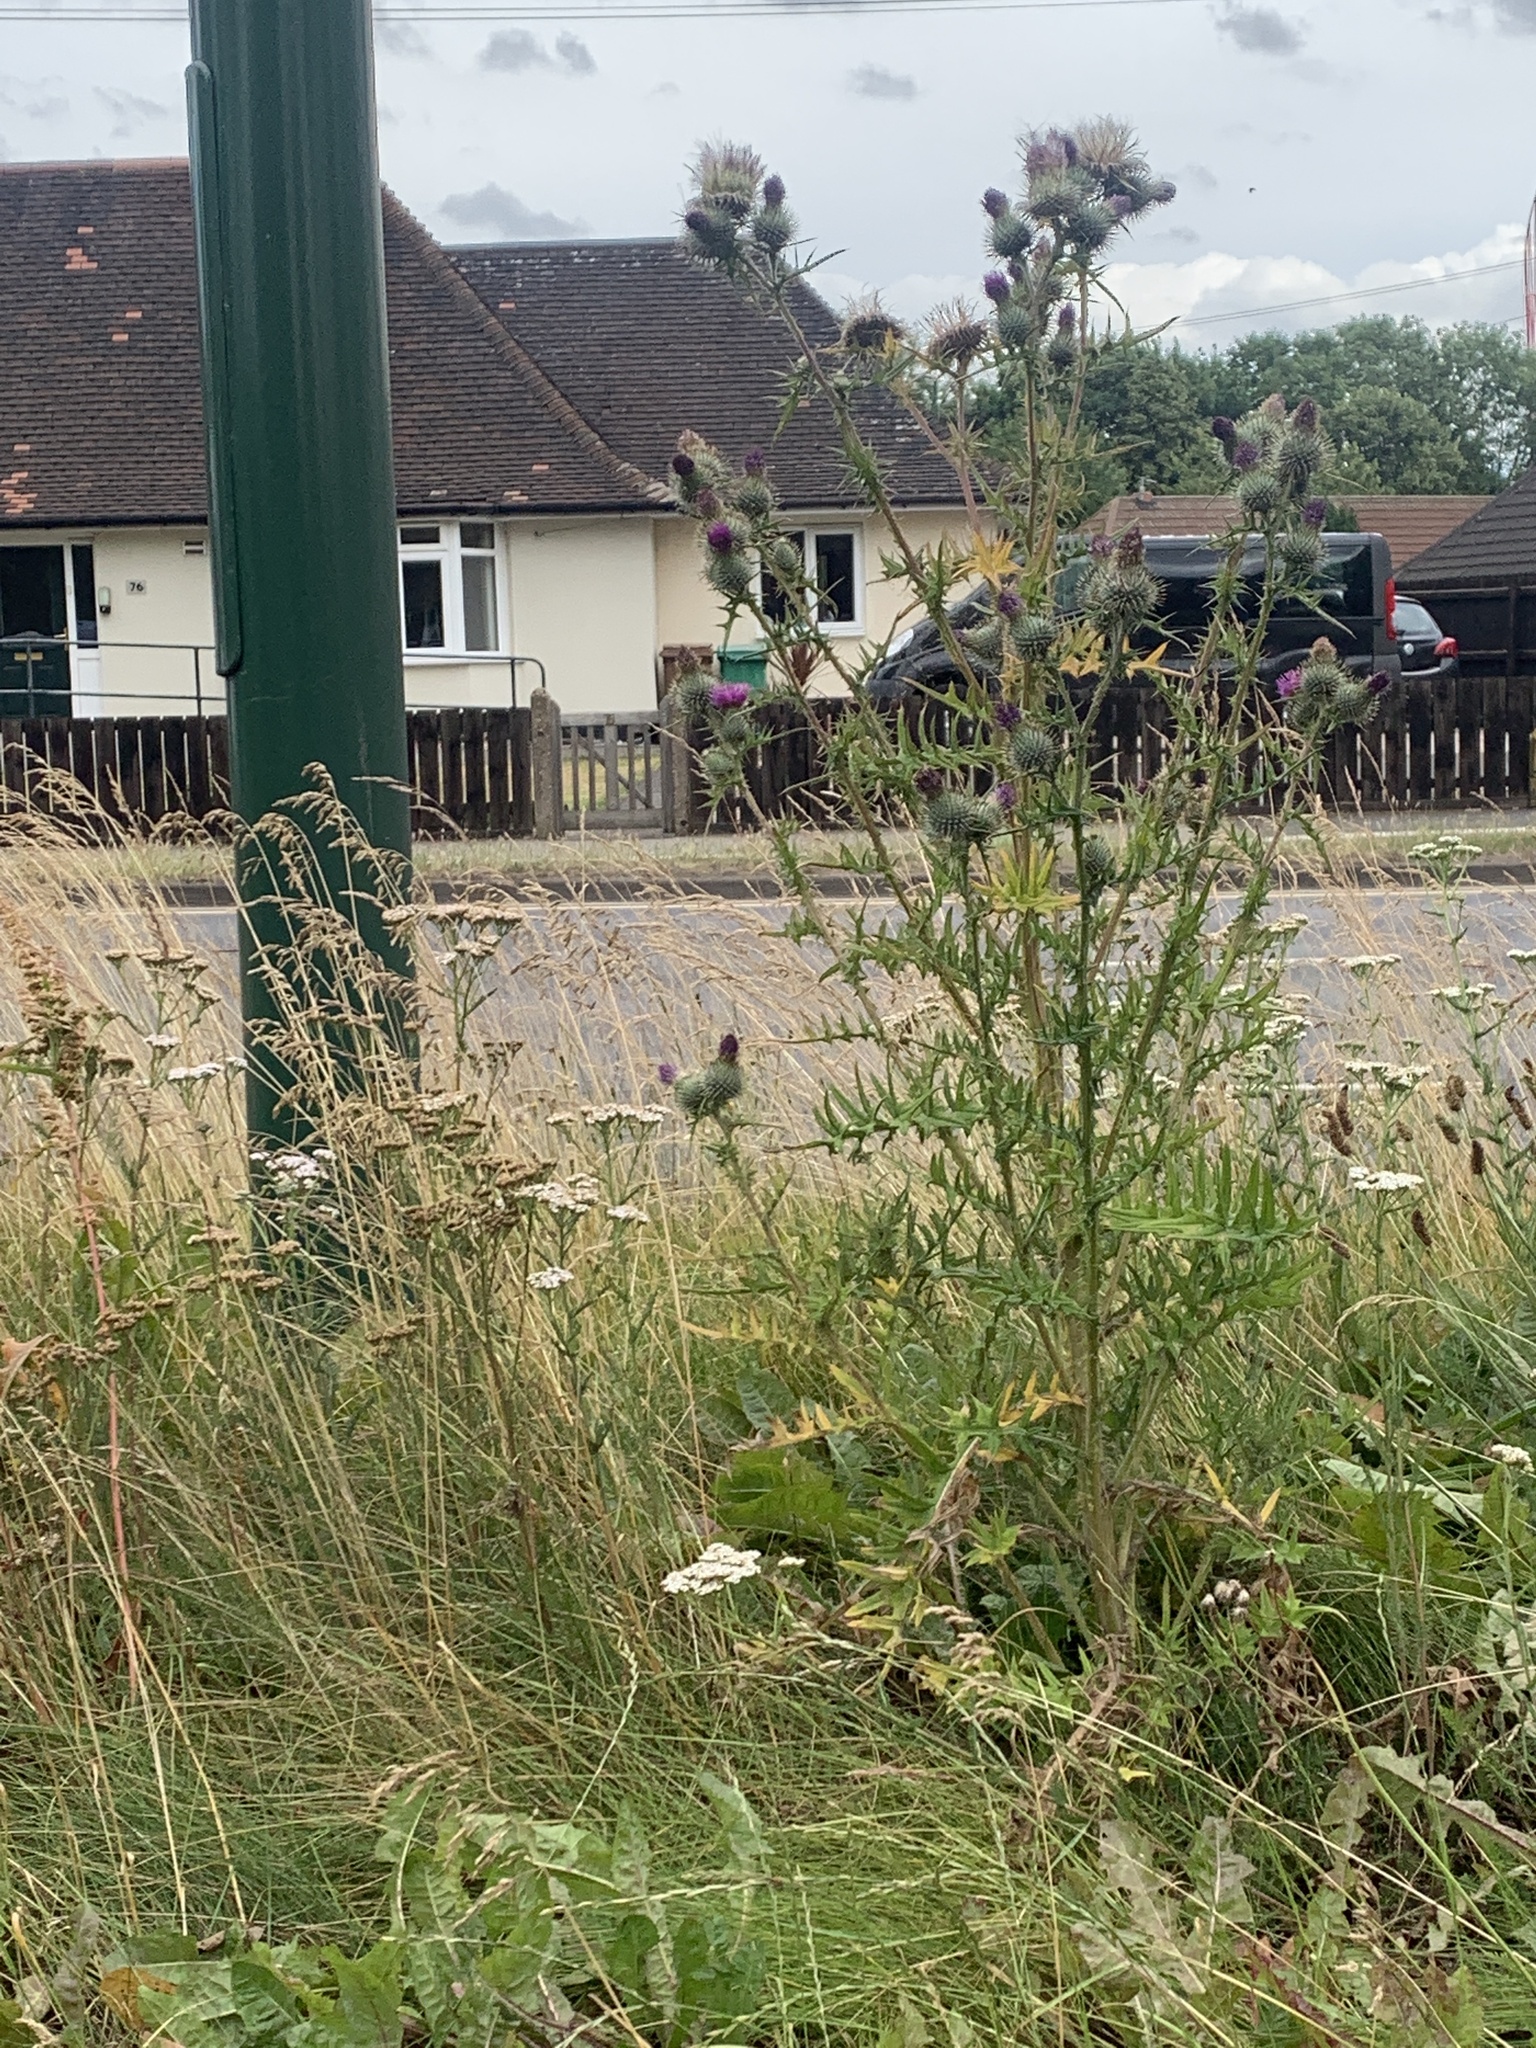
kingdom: Plantae
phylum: Tracheophyta
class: Magnoliopsida
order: Asterales
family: Asteraceae
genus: Cirsium
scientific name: Cirsium vulgare
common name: Bull thistle
